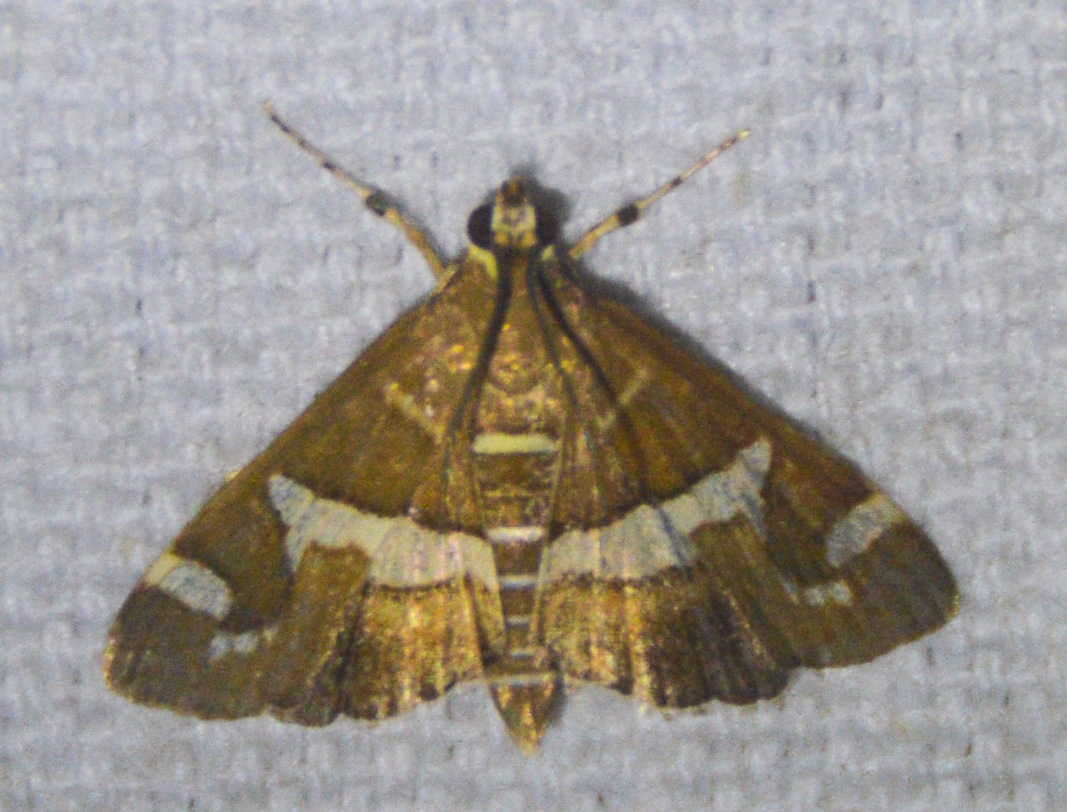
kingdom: Animalia
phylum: Arthropoda
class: Insecta
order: Lepidoptera
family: Crambidae
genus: Spoladea
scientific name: Spoladea recurvalis
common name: Beet webworm moth
